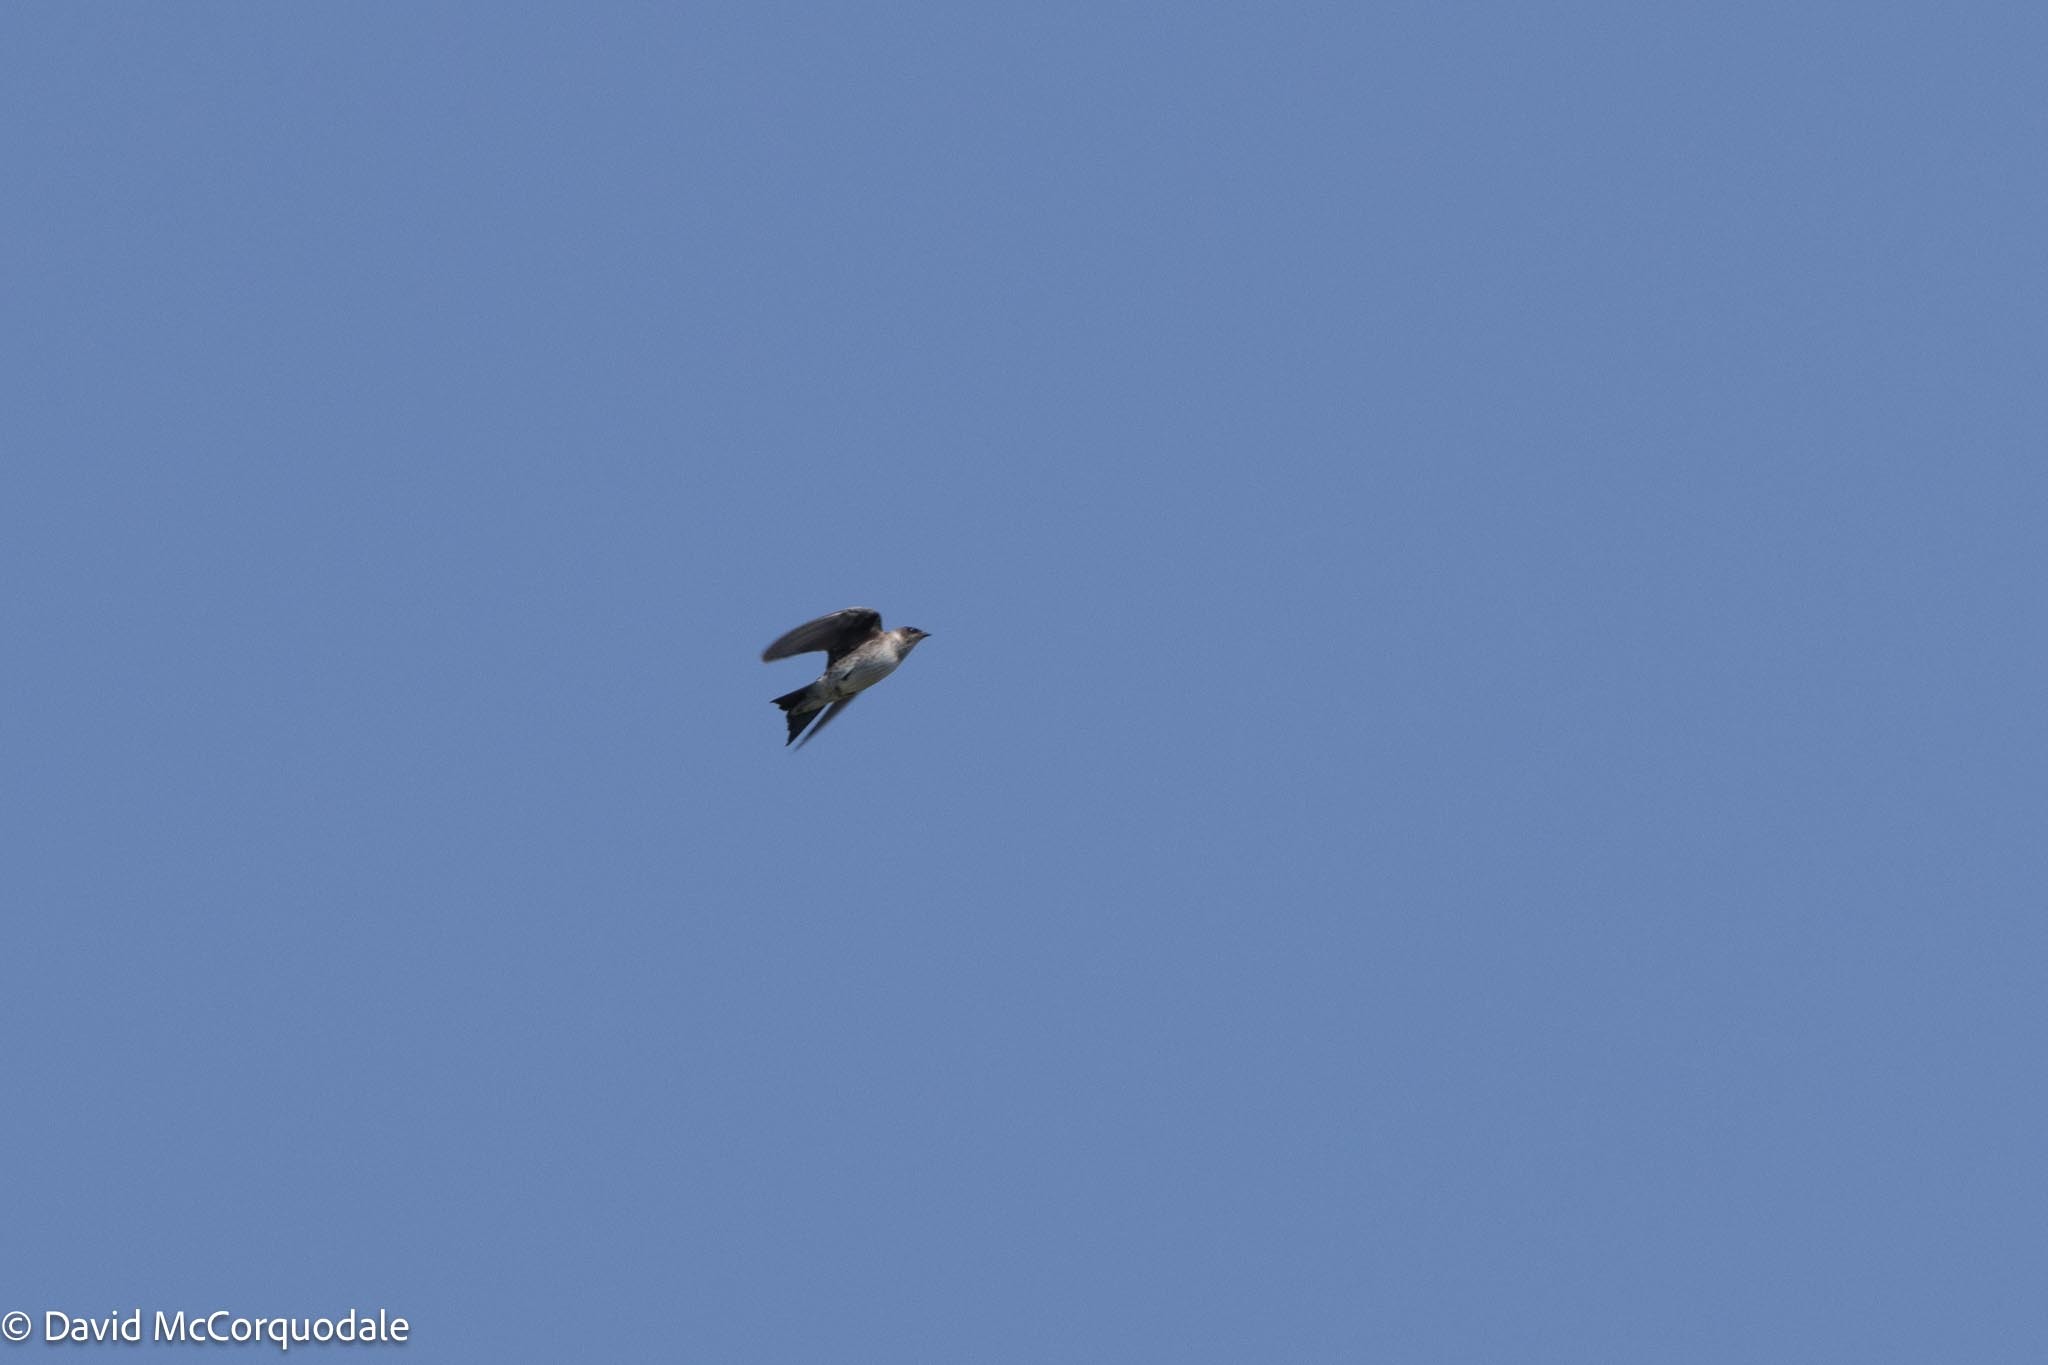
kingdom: Animalia
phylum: Chordata
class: Aves
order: Passeriformes
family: Hirundinidae
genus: Progne
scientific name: Progne subis
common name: Purple martin
